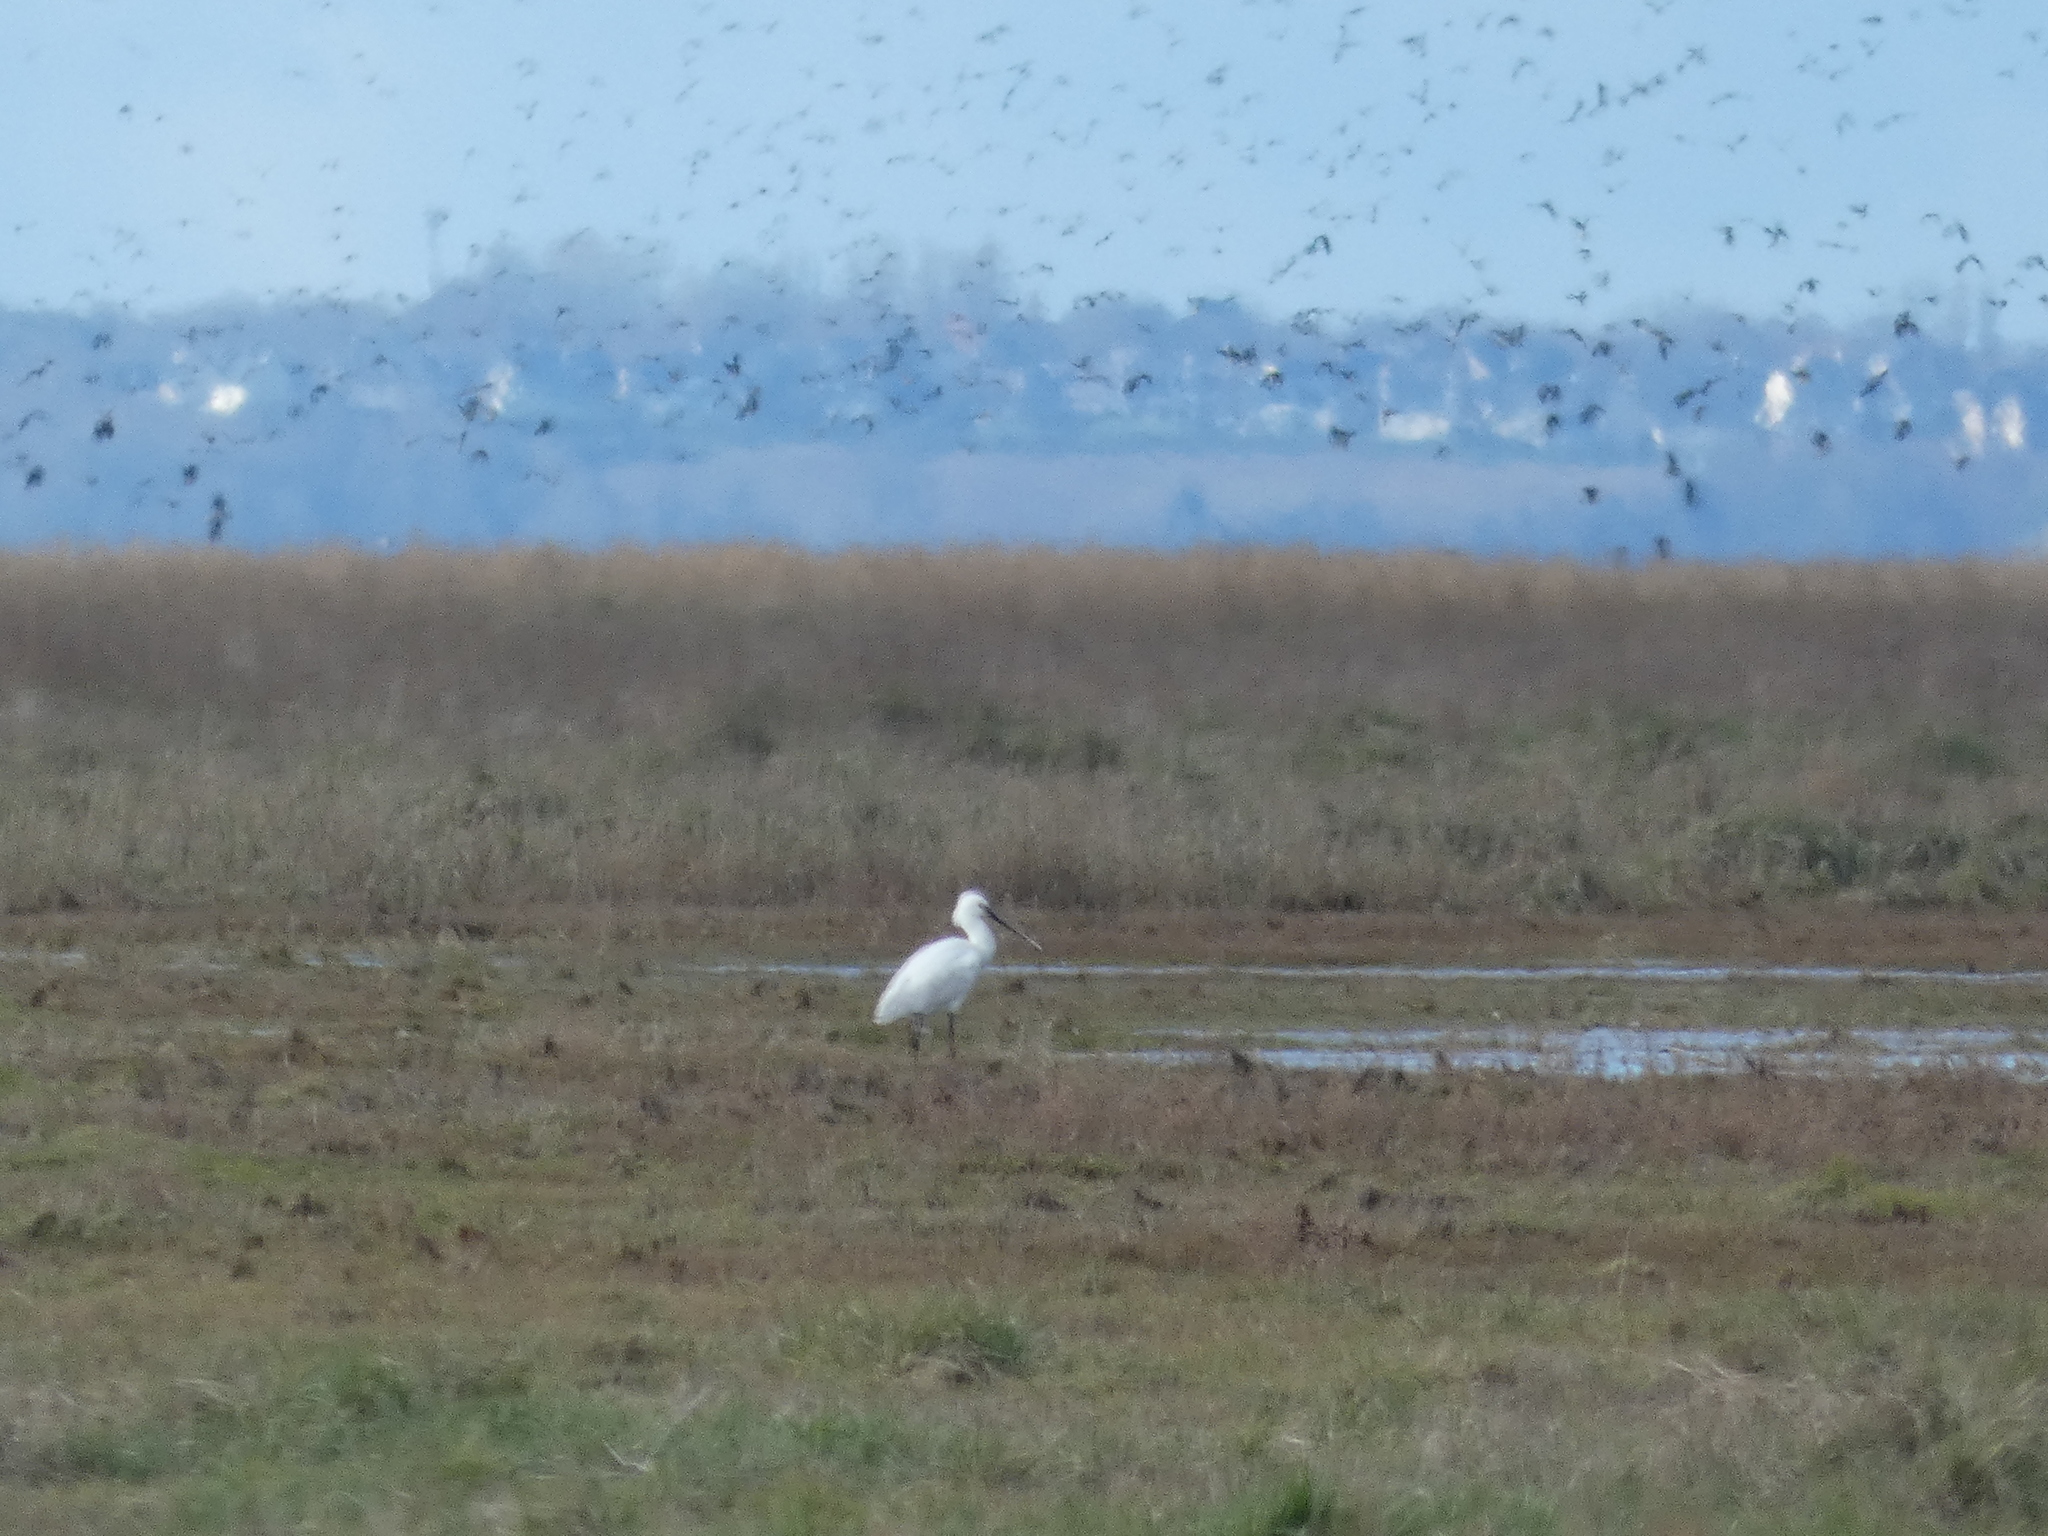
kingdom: Animalia
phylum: Chordata
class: Aves
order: Pelecaniformes
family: Threskiornithidae
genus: Platalea
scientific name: Platalea leucorodia
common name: Eurasian spoonbill
